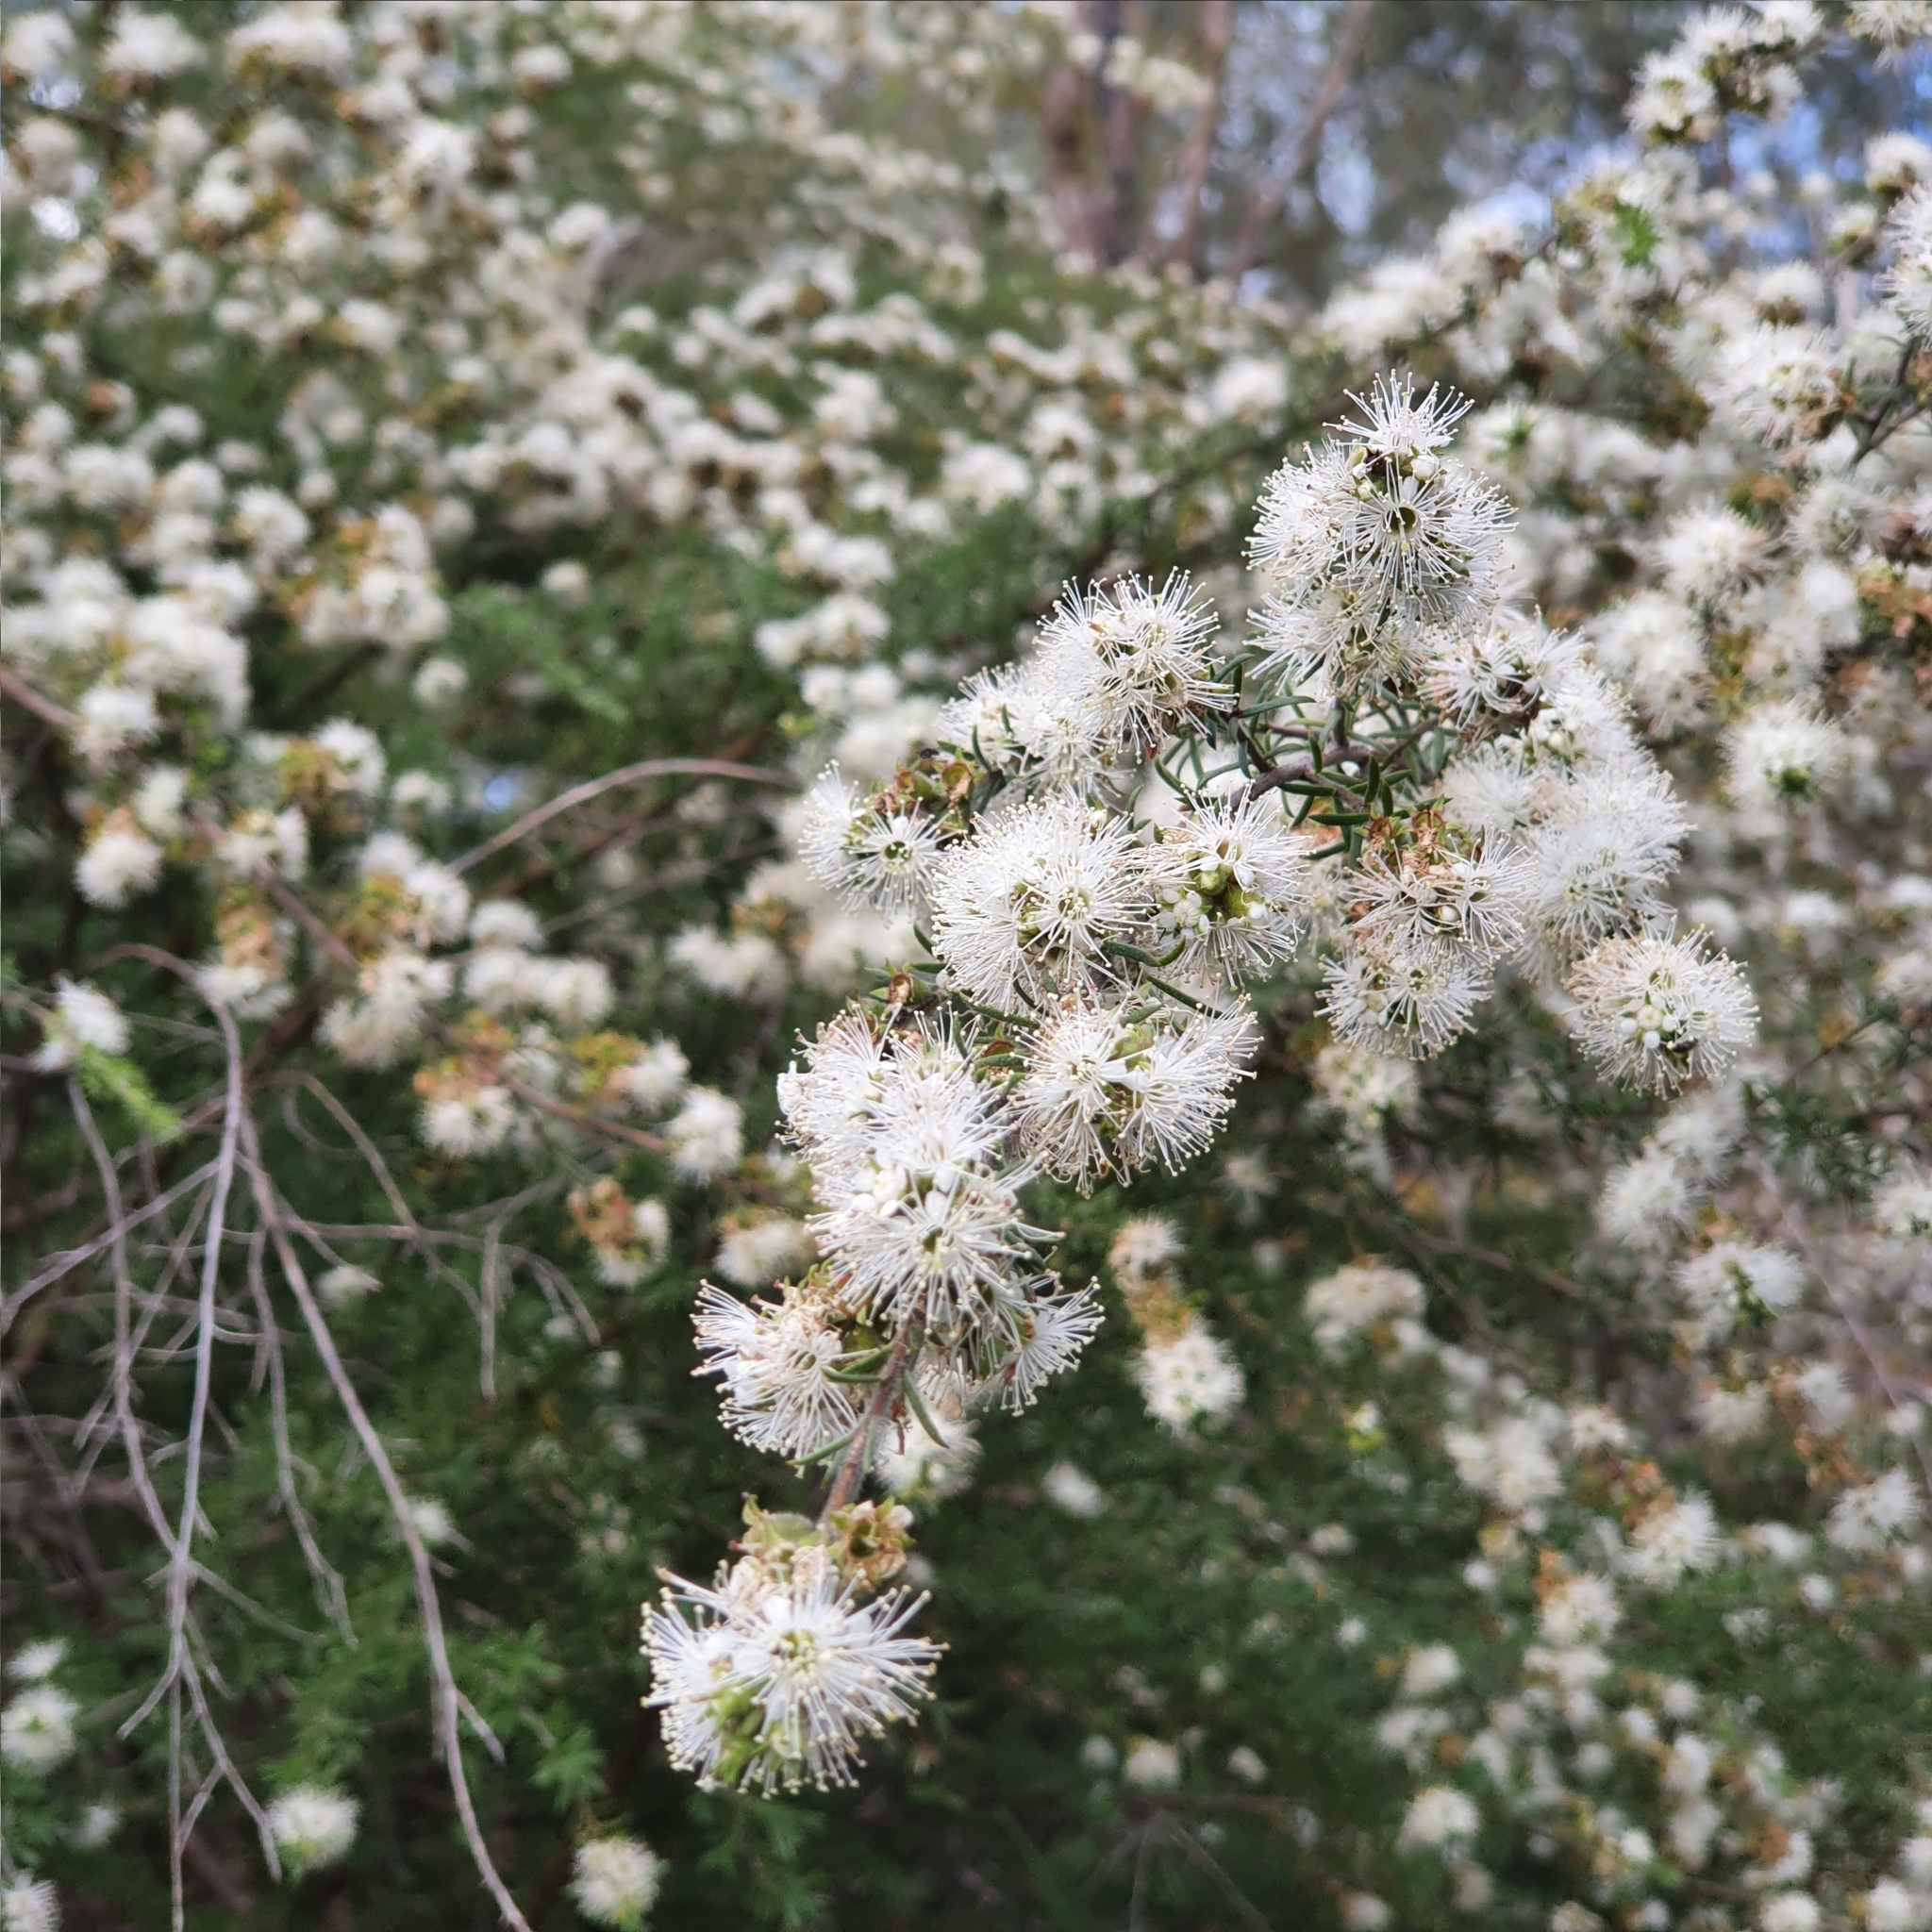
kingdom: Plantae
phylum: Tracheophyta
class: Magnoliopsida
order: Myrtales
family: Myrtaceae
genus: Kunzea
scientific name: Kunzea ambigua
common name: Tickbush
